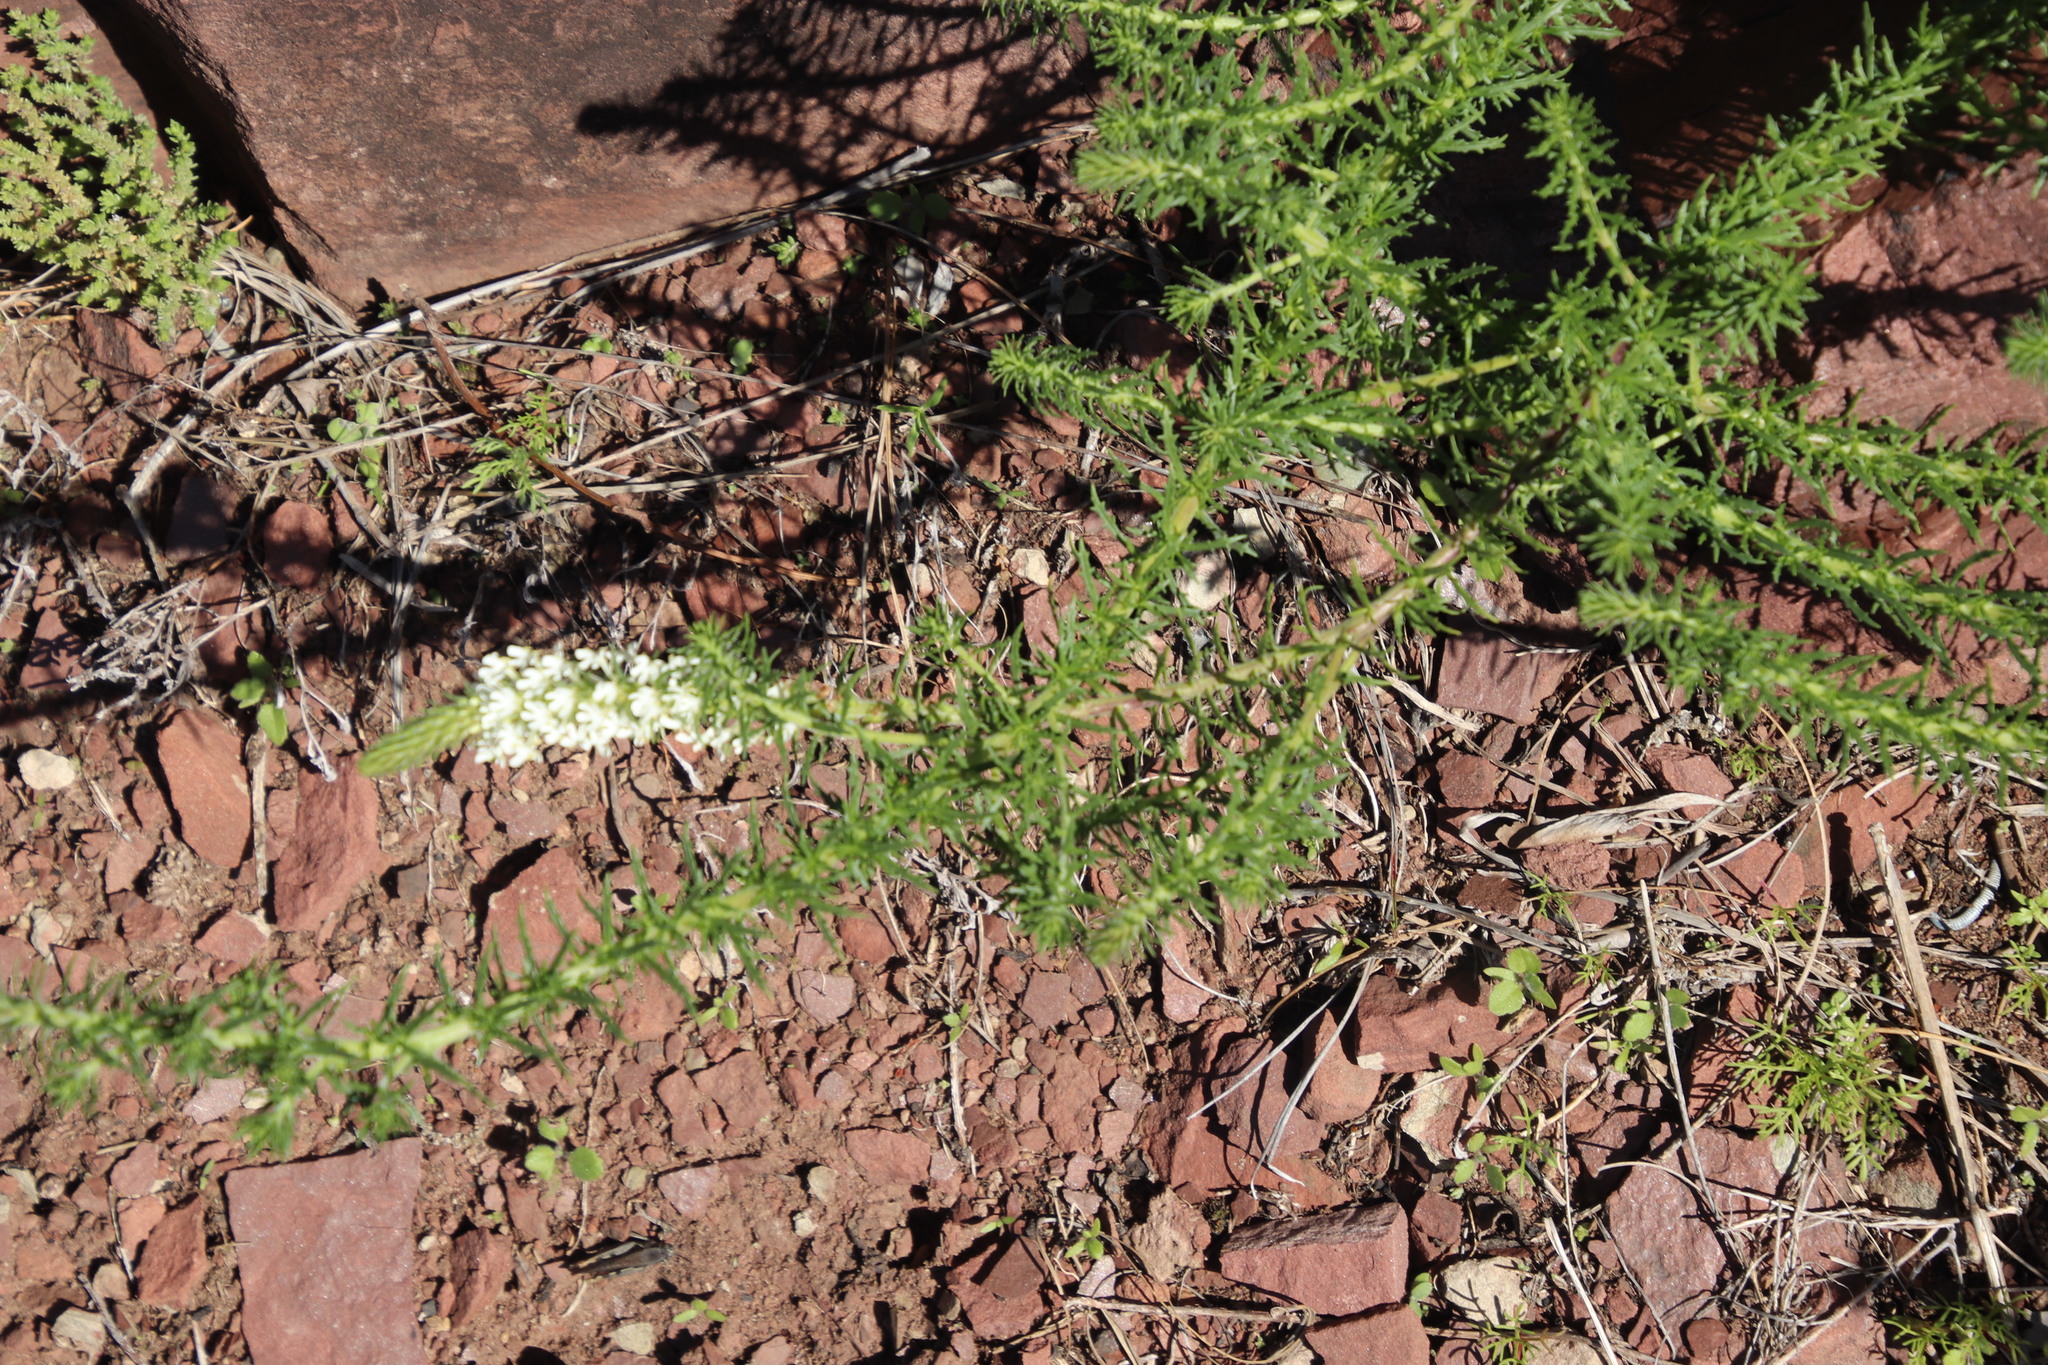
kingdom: Plantae
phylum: Tracheophyta
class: Magnoliopsida
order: Lamiales
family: Scrophulariaceae
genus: Dischisma
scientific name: Dischisma ciliatum
